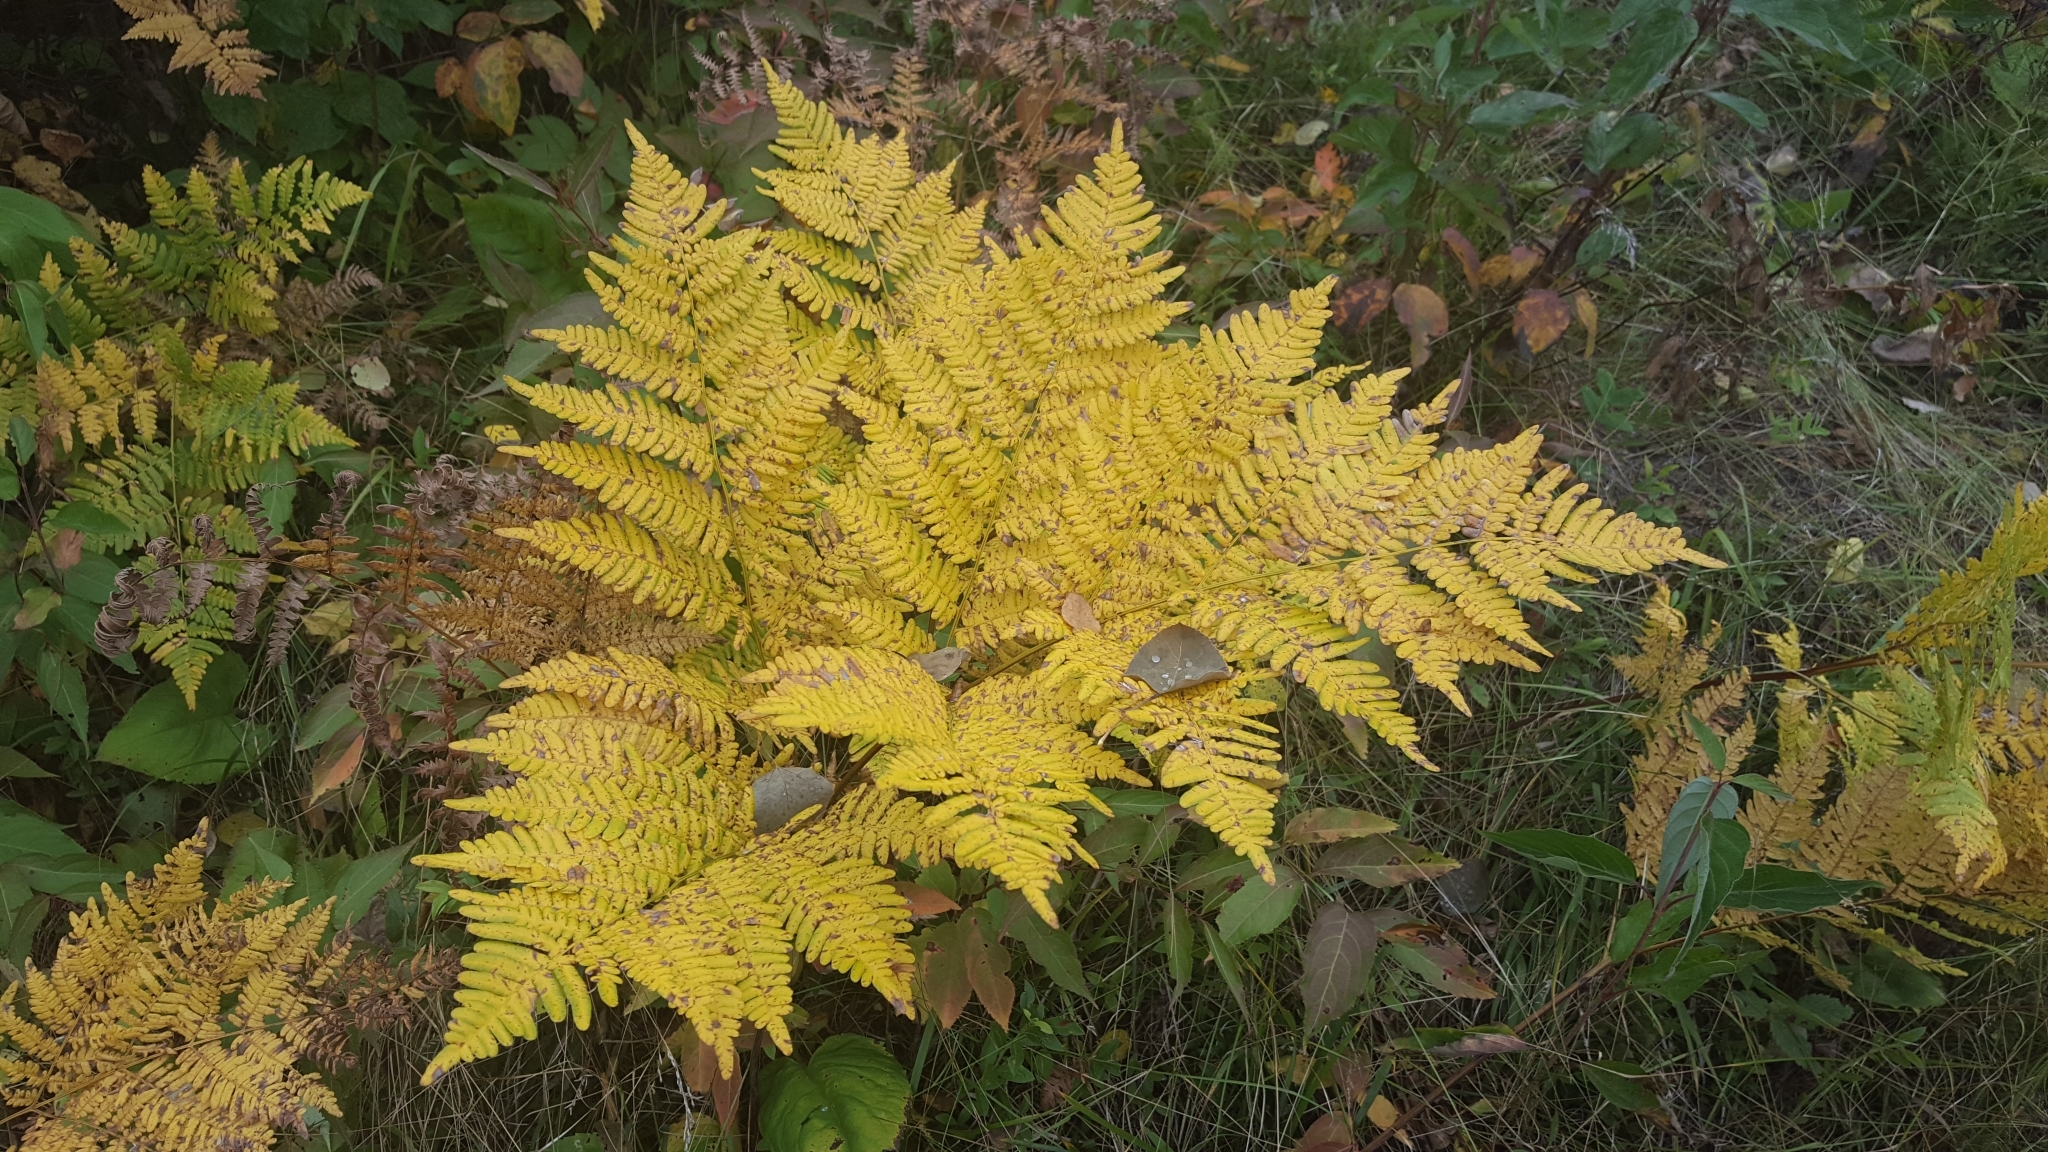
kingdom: Plantae
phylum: Tracheophyta
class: Polypodiopsida
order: Polypodiales
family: Dennstaedtiaceae
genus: Pteridium
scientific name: Pteridium aquilinum
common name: Bracken
